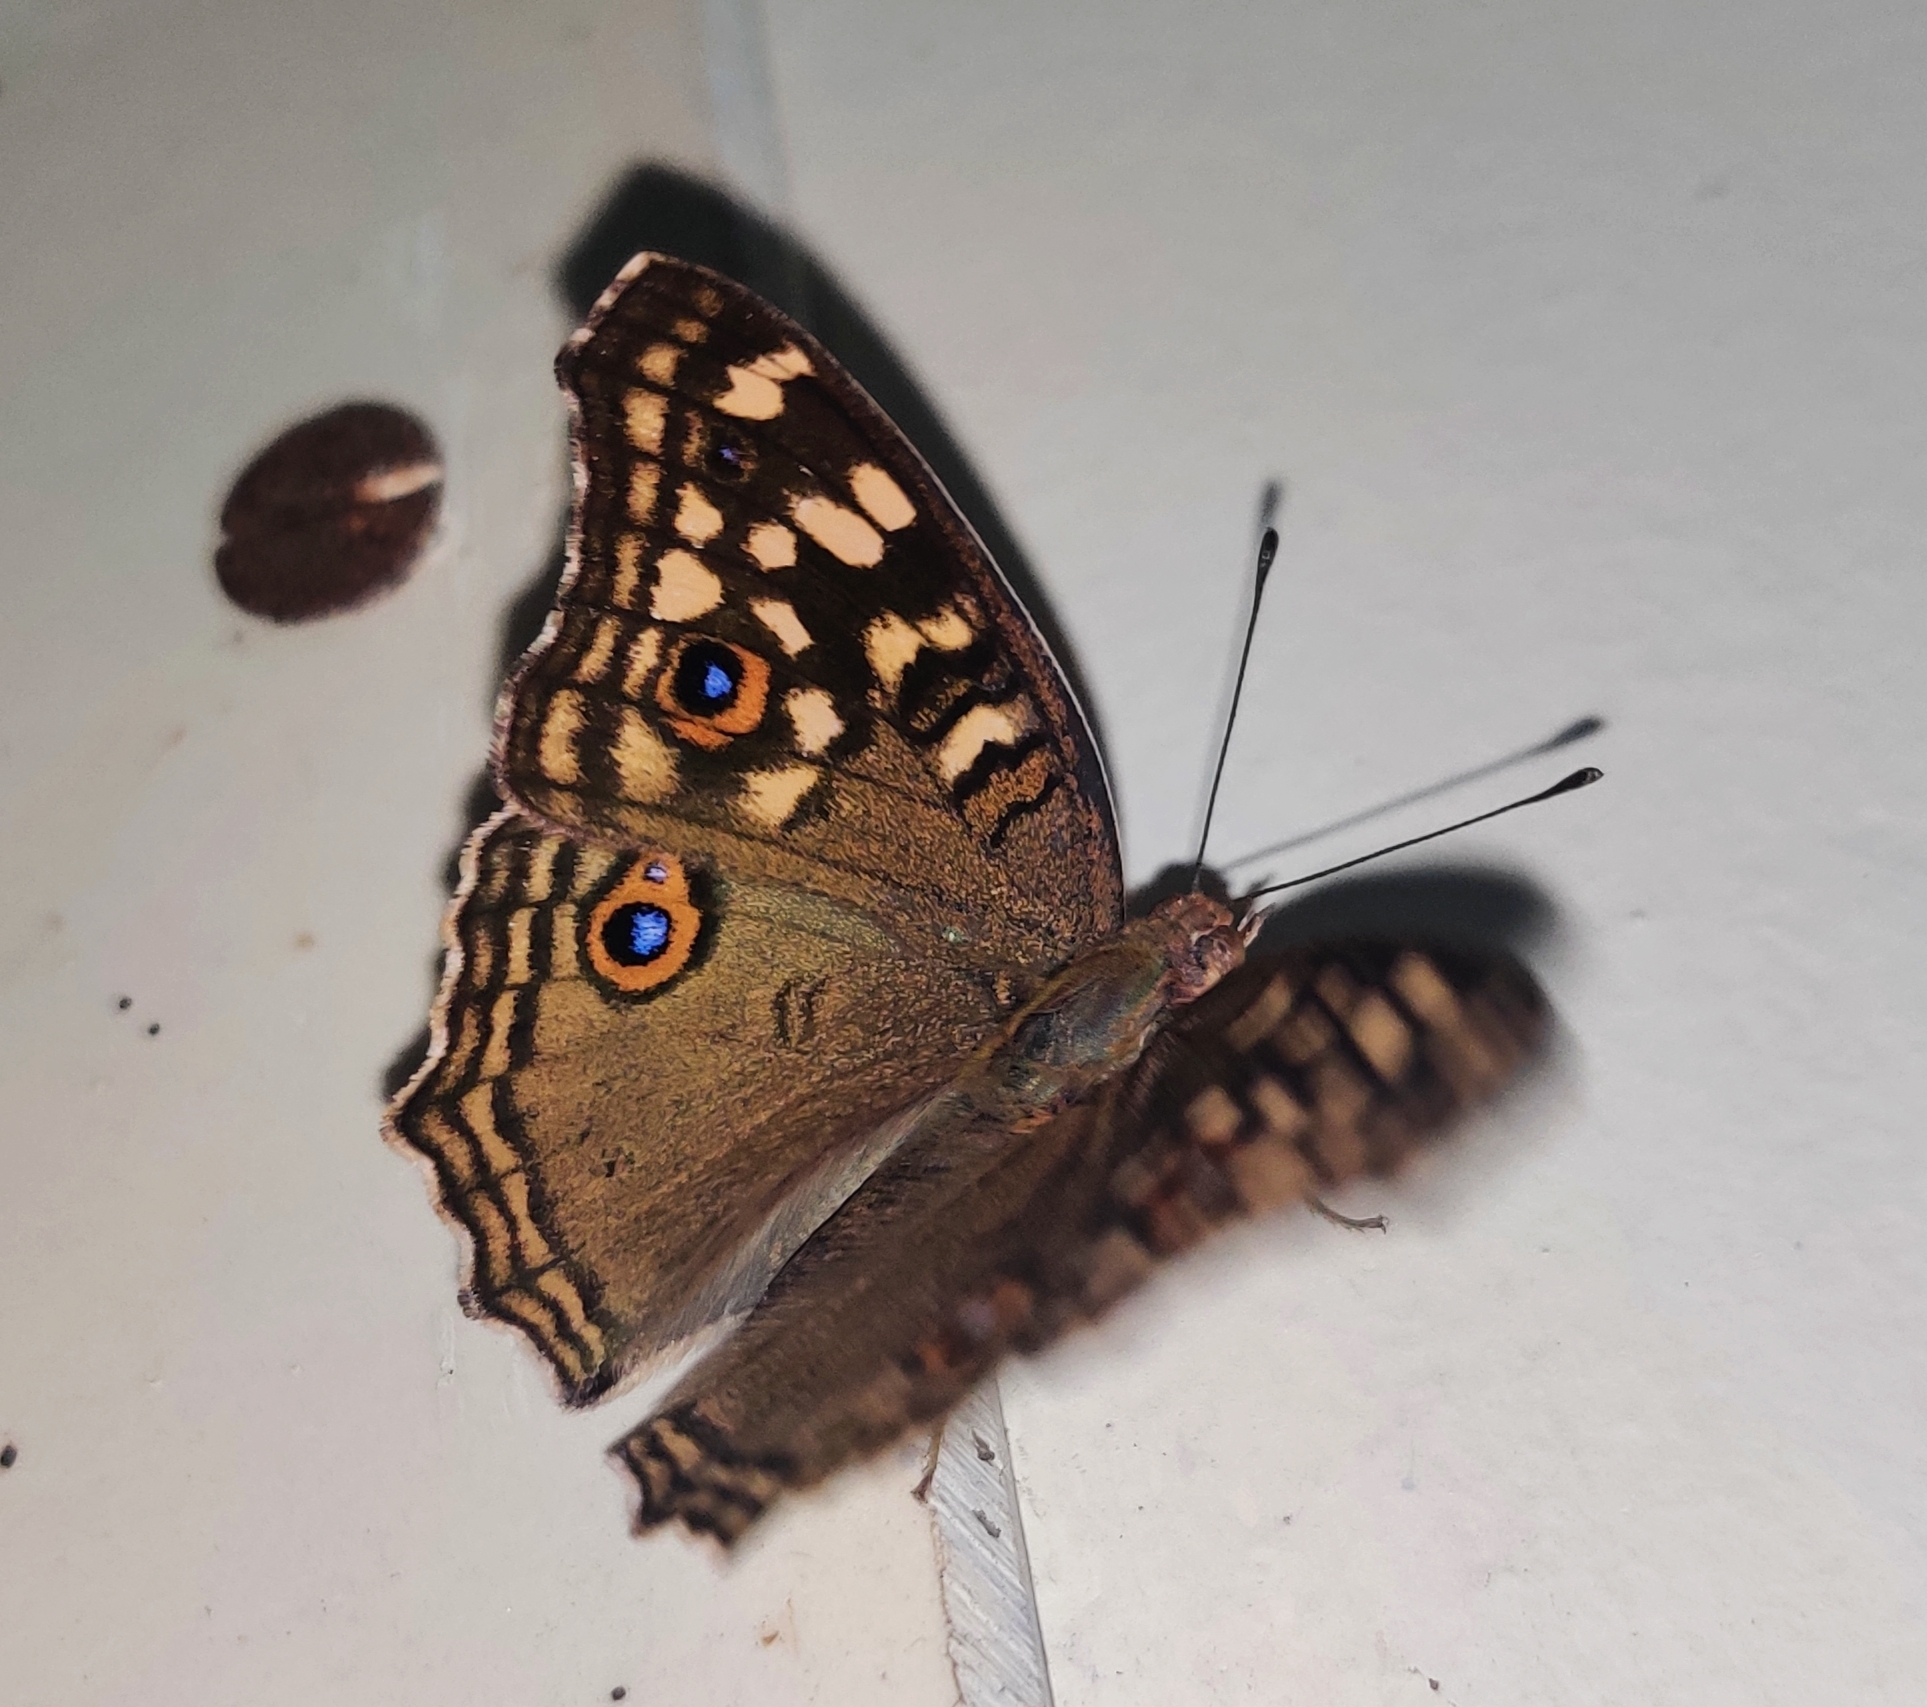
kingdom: Animalia
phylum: Arthropoda
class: Insecta
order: Lepidoptera
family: Nymphalidae
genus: Junonia
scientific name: Junonia lemonias
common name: Lemon pansy
